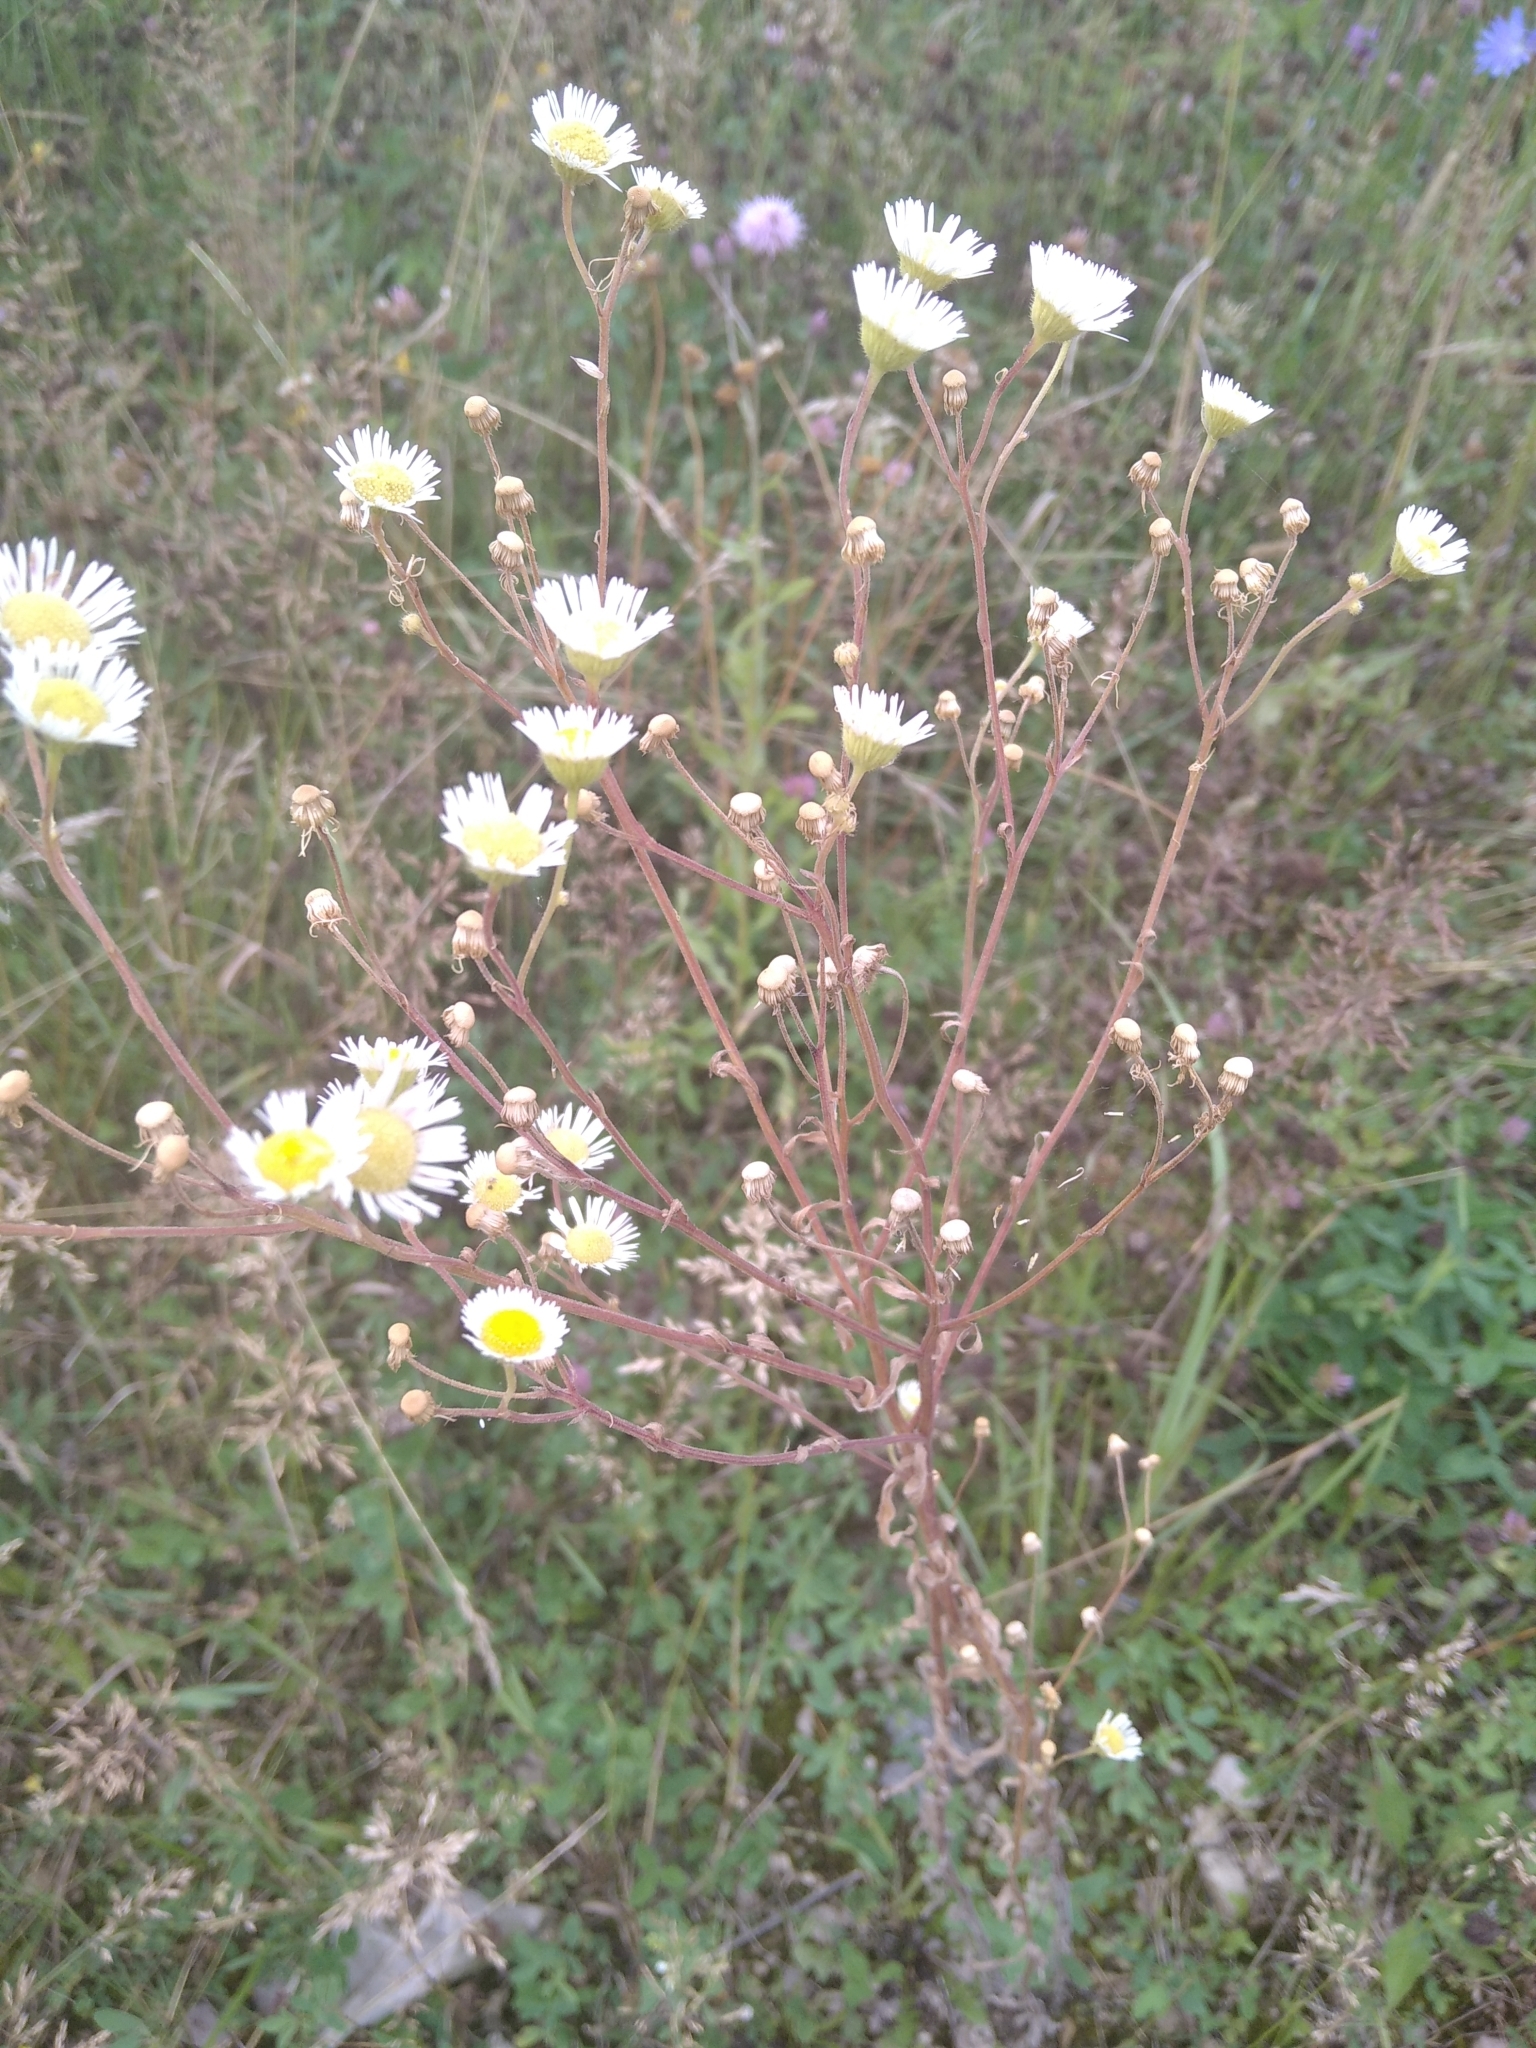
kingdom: Plantae
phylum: Tracheophyta
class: Magnoliopsida
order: Asterales
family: Asteraceae
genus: Erigeron
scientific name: Erigeron annuus
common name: Tall fleabane
